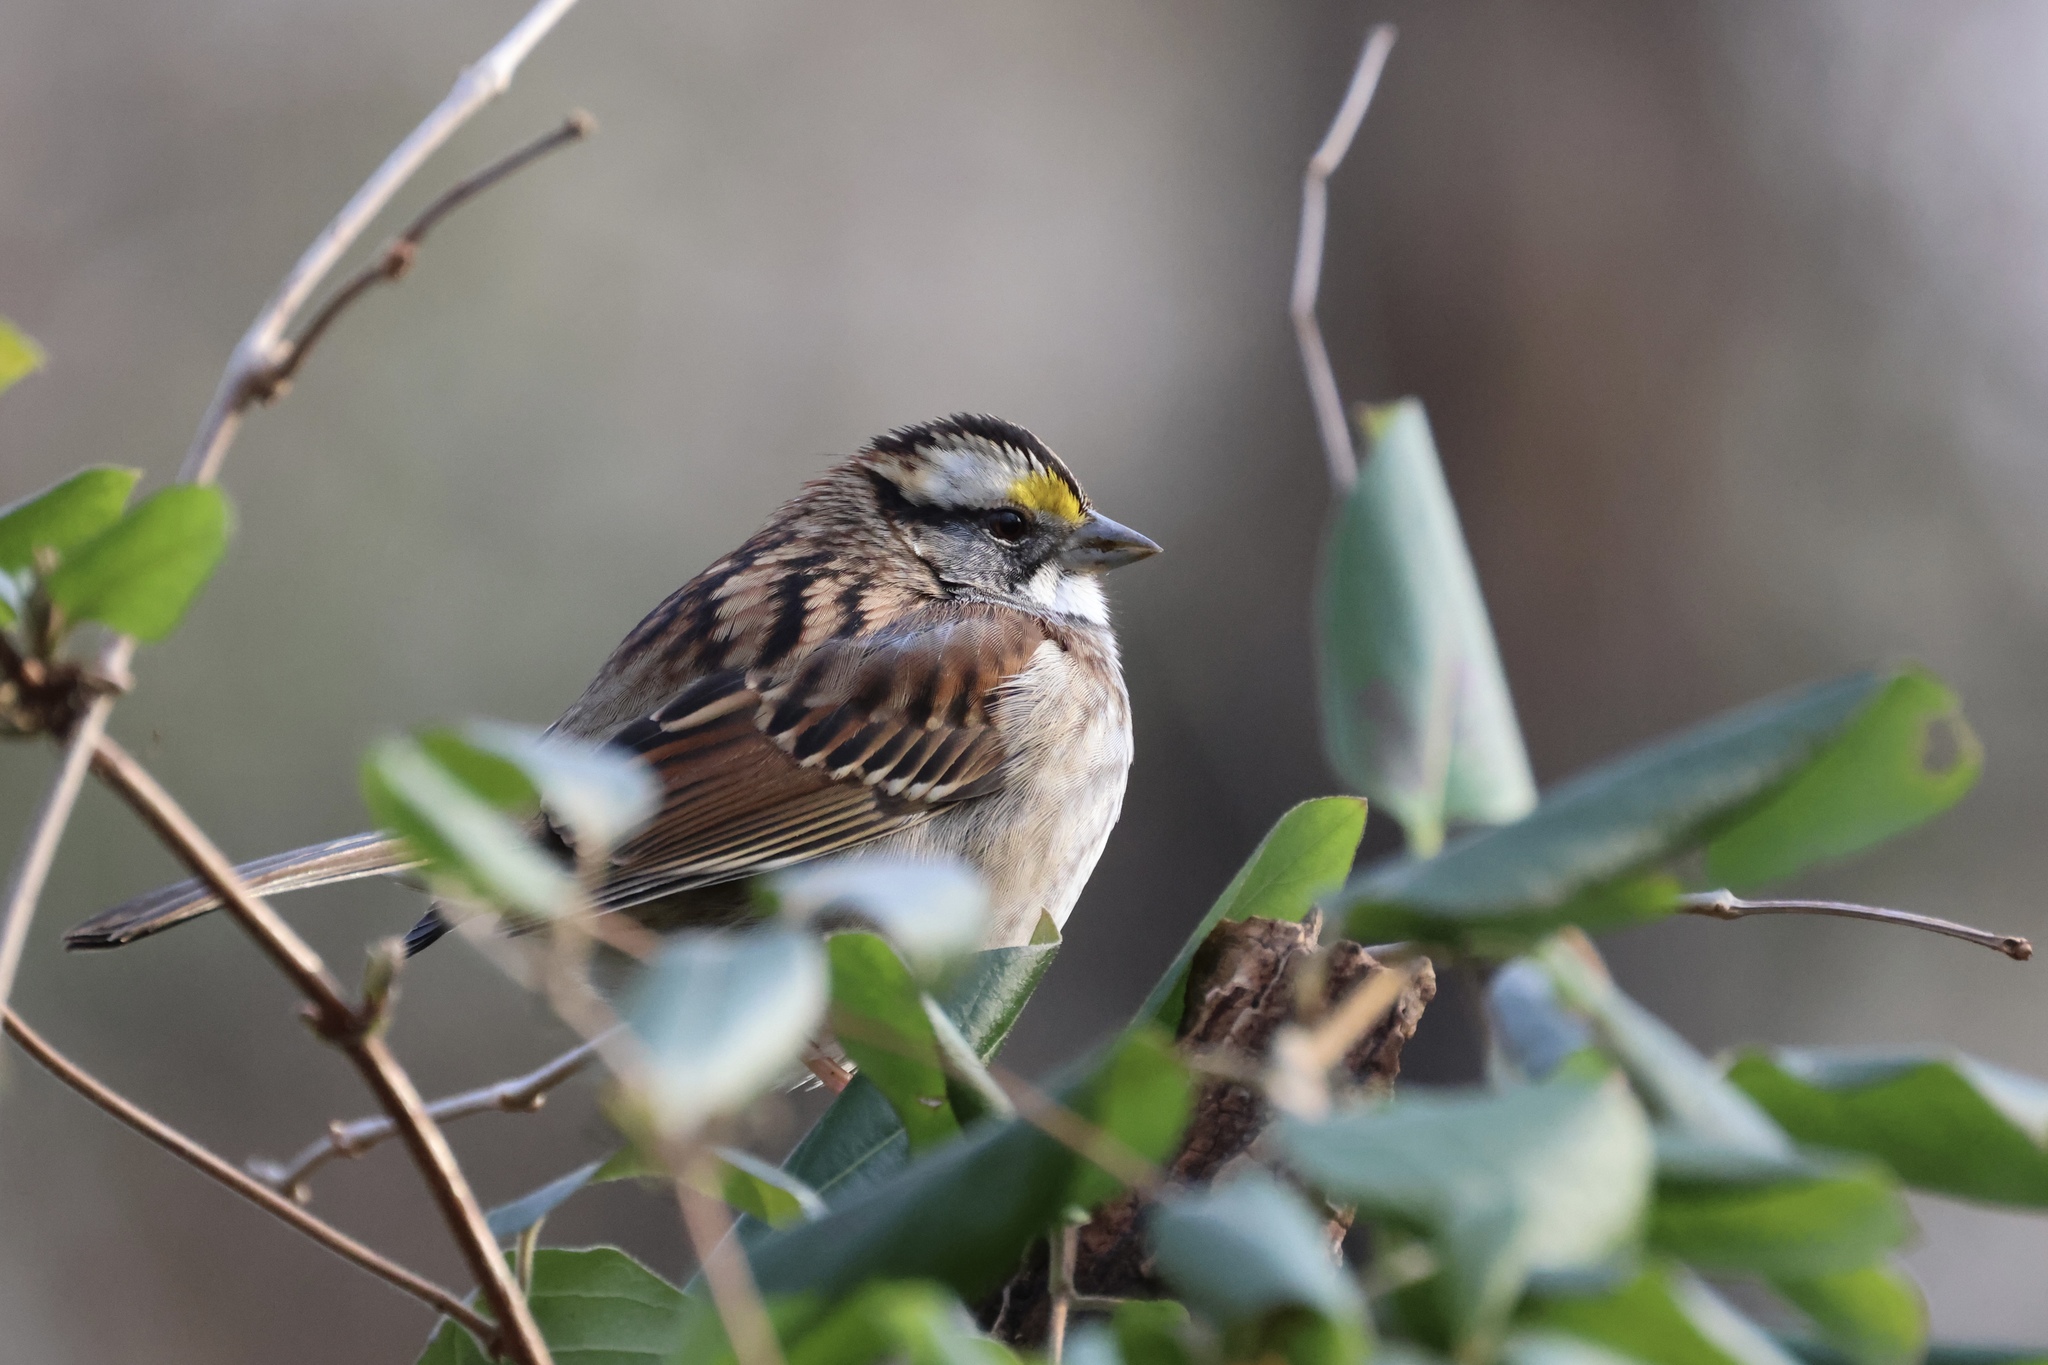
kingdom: Animalia
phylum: Chordata
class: Aves
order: Passeriformes
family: Passerellidae
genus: Zonotrichia
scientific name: Zonotrichia albicollis
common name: White-throated sparrow
